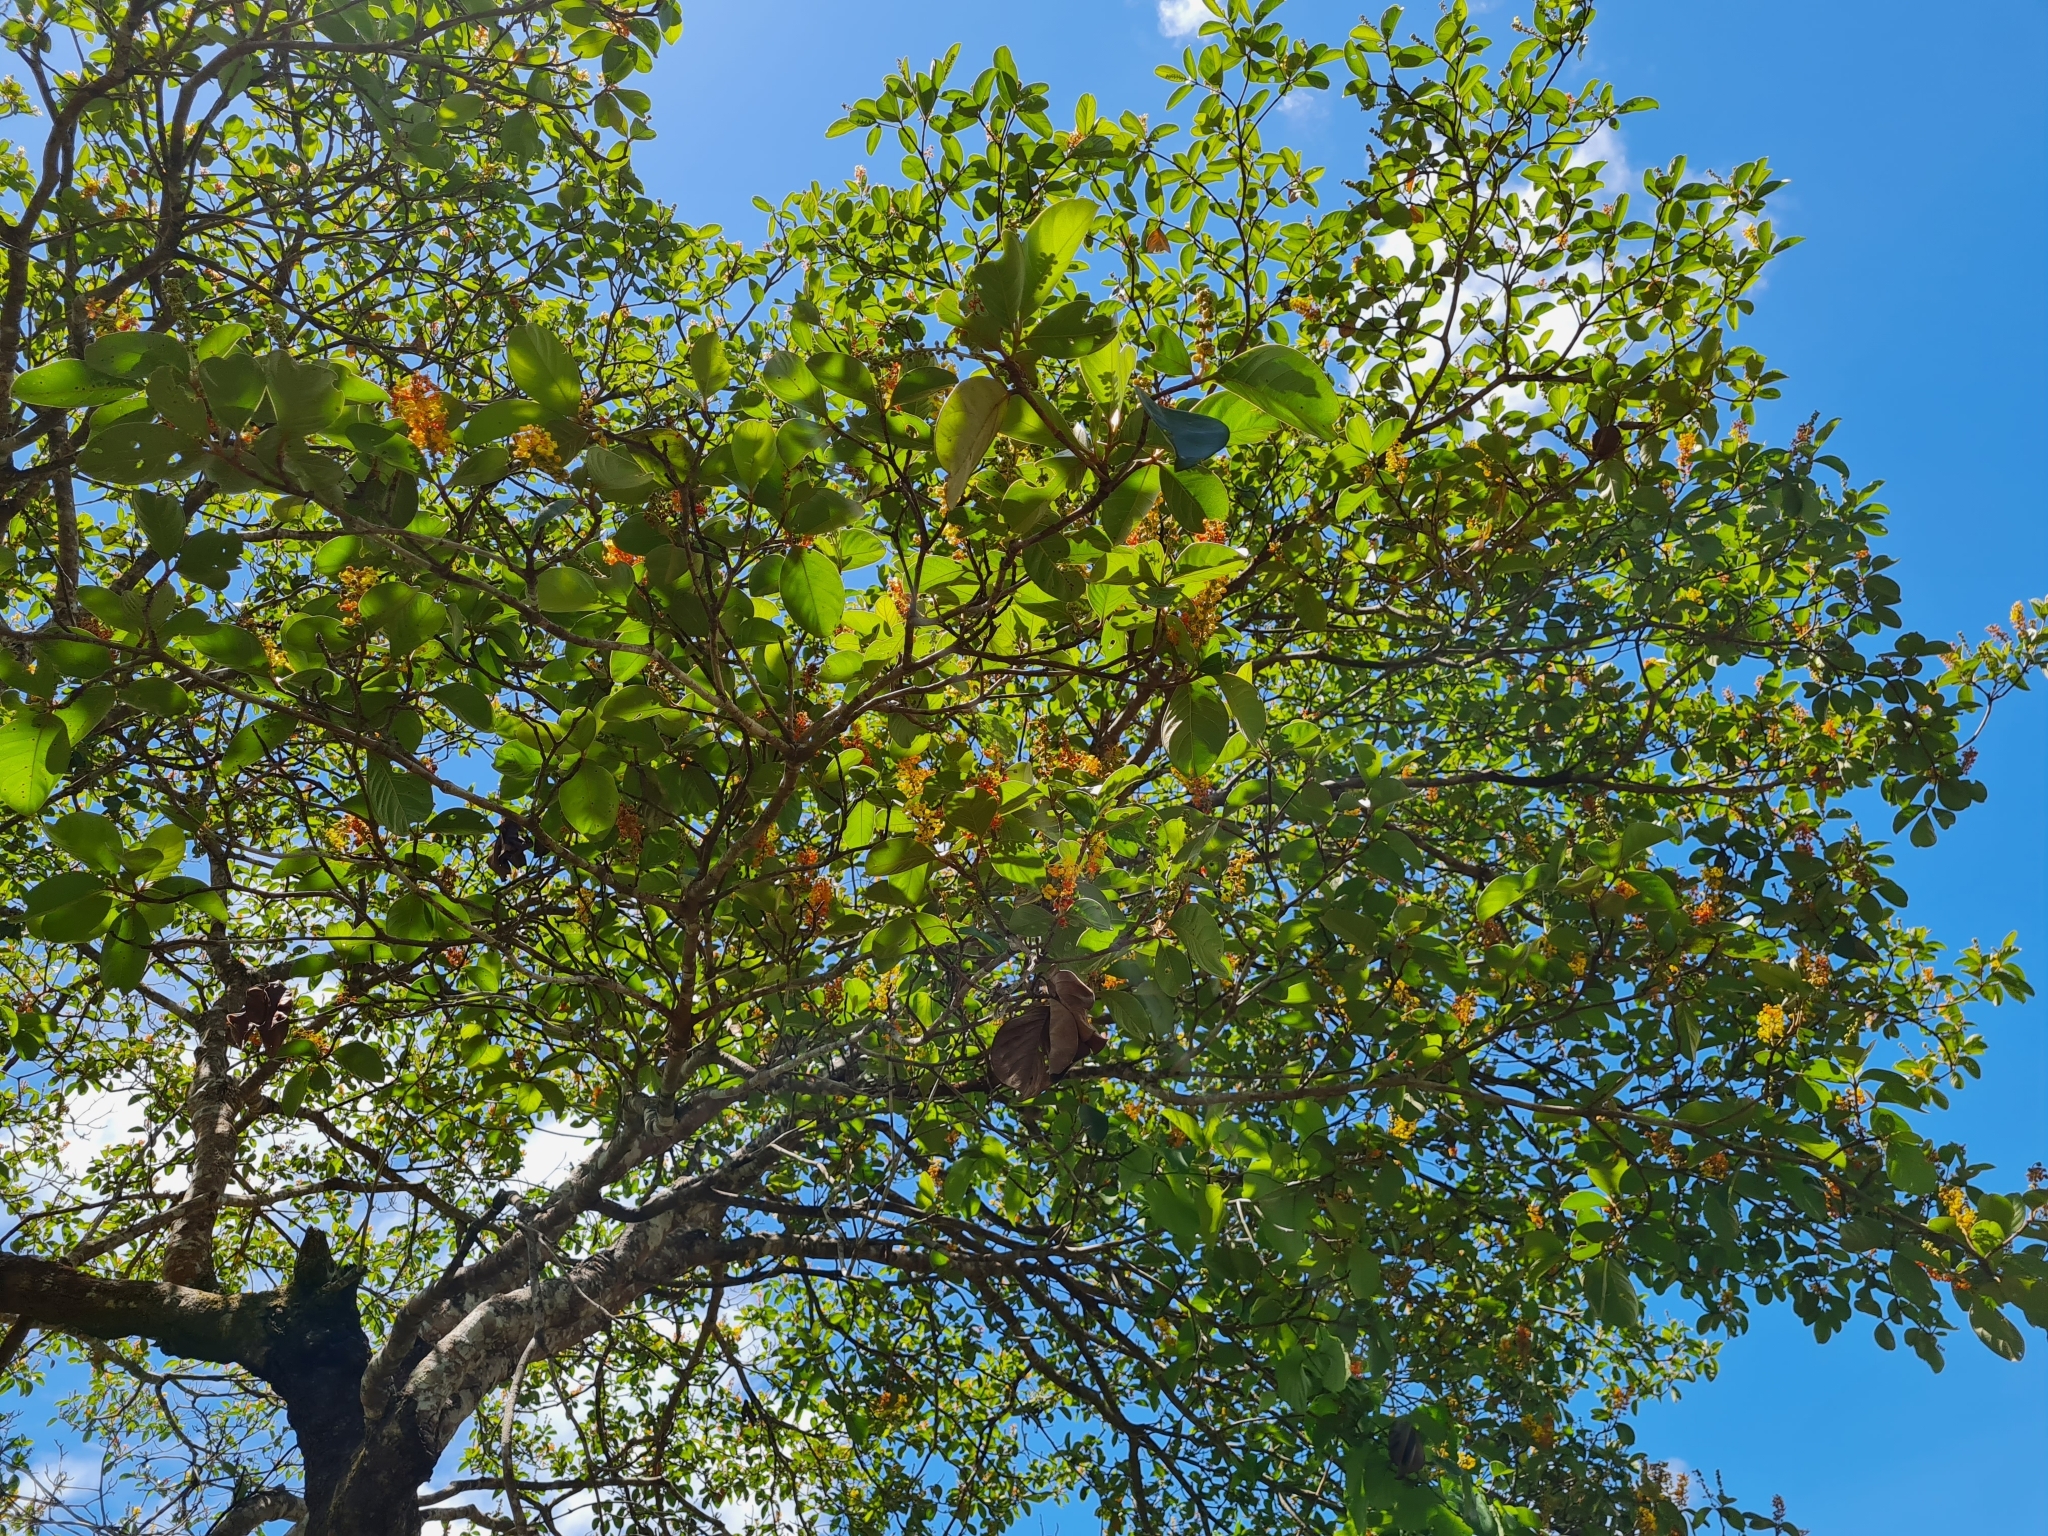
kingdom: Plantae
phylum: Tracheophyta
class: Magnoliopsida
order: Malpighiales
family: Malpighiaceae
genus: Byrsonima
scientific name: Byrsonima crassifolia
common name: Golden spoon
